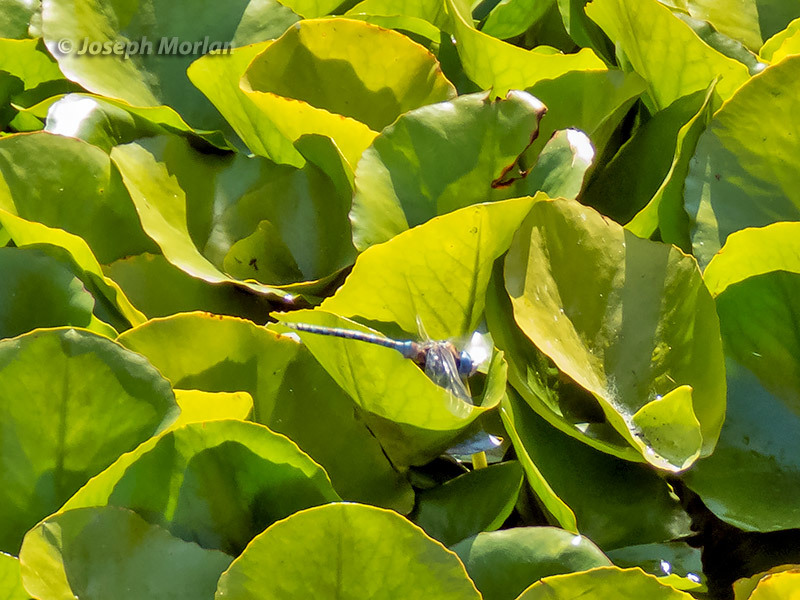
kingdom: Animalia
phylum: Arthropoda
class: Insecta
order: Odonata
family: Aeshnidae
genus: Rhionaeschna
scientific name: Rhionaeschna multicolor
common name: Blue-eyed darner
